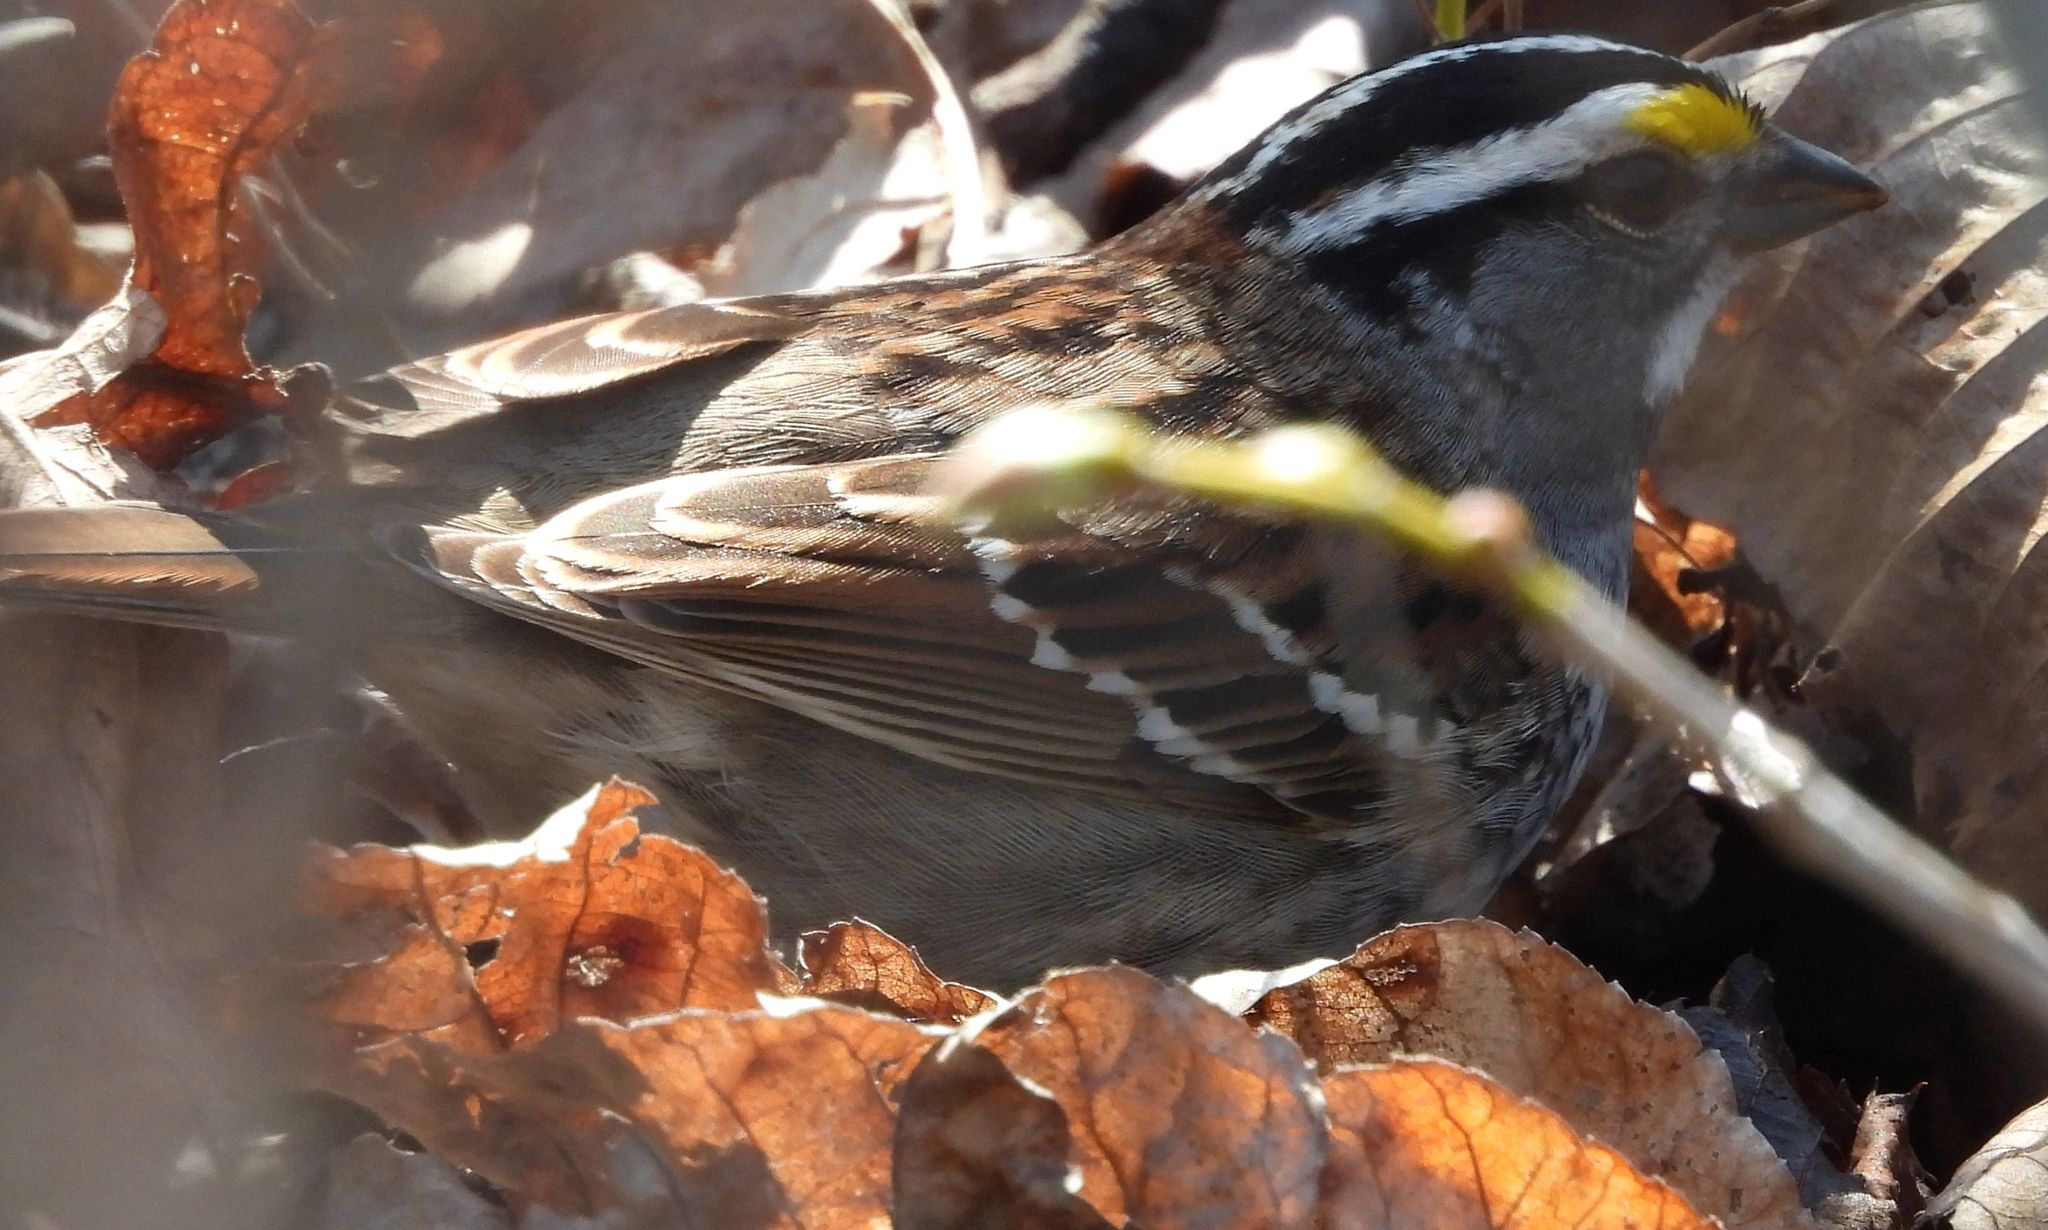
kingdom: Animalia
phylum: Chordata
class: Aves
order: Passeriformes
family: Passerellidae
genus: Zonotrichia
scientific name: Zonotrichia albicollis
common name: White-throated sparrow
